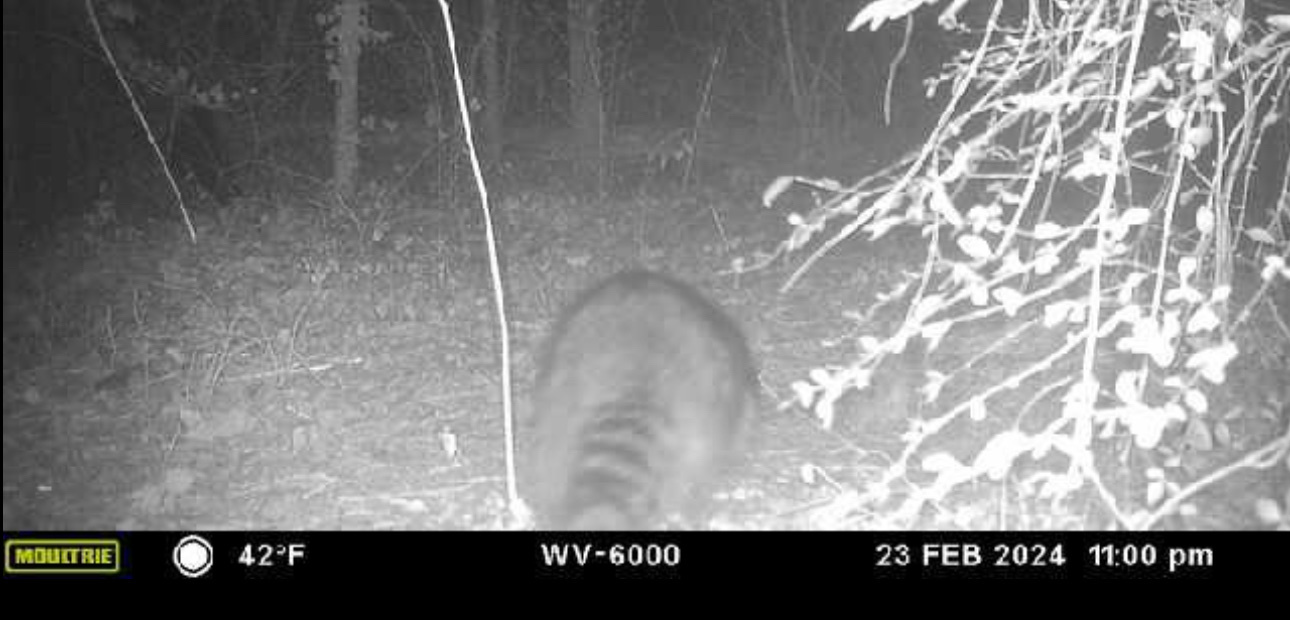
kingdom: Animalia
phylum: Chordata
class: Mammalia
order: Carnivora
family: Procyonidae
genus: Procyon
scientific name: Procyon lotor
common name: Raccoon
